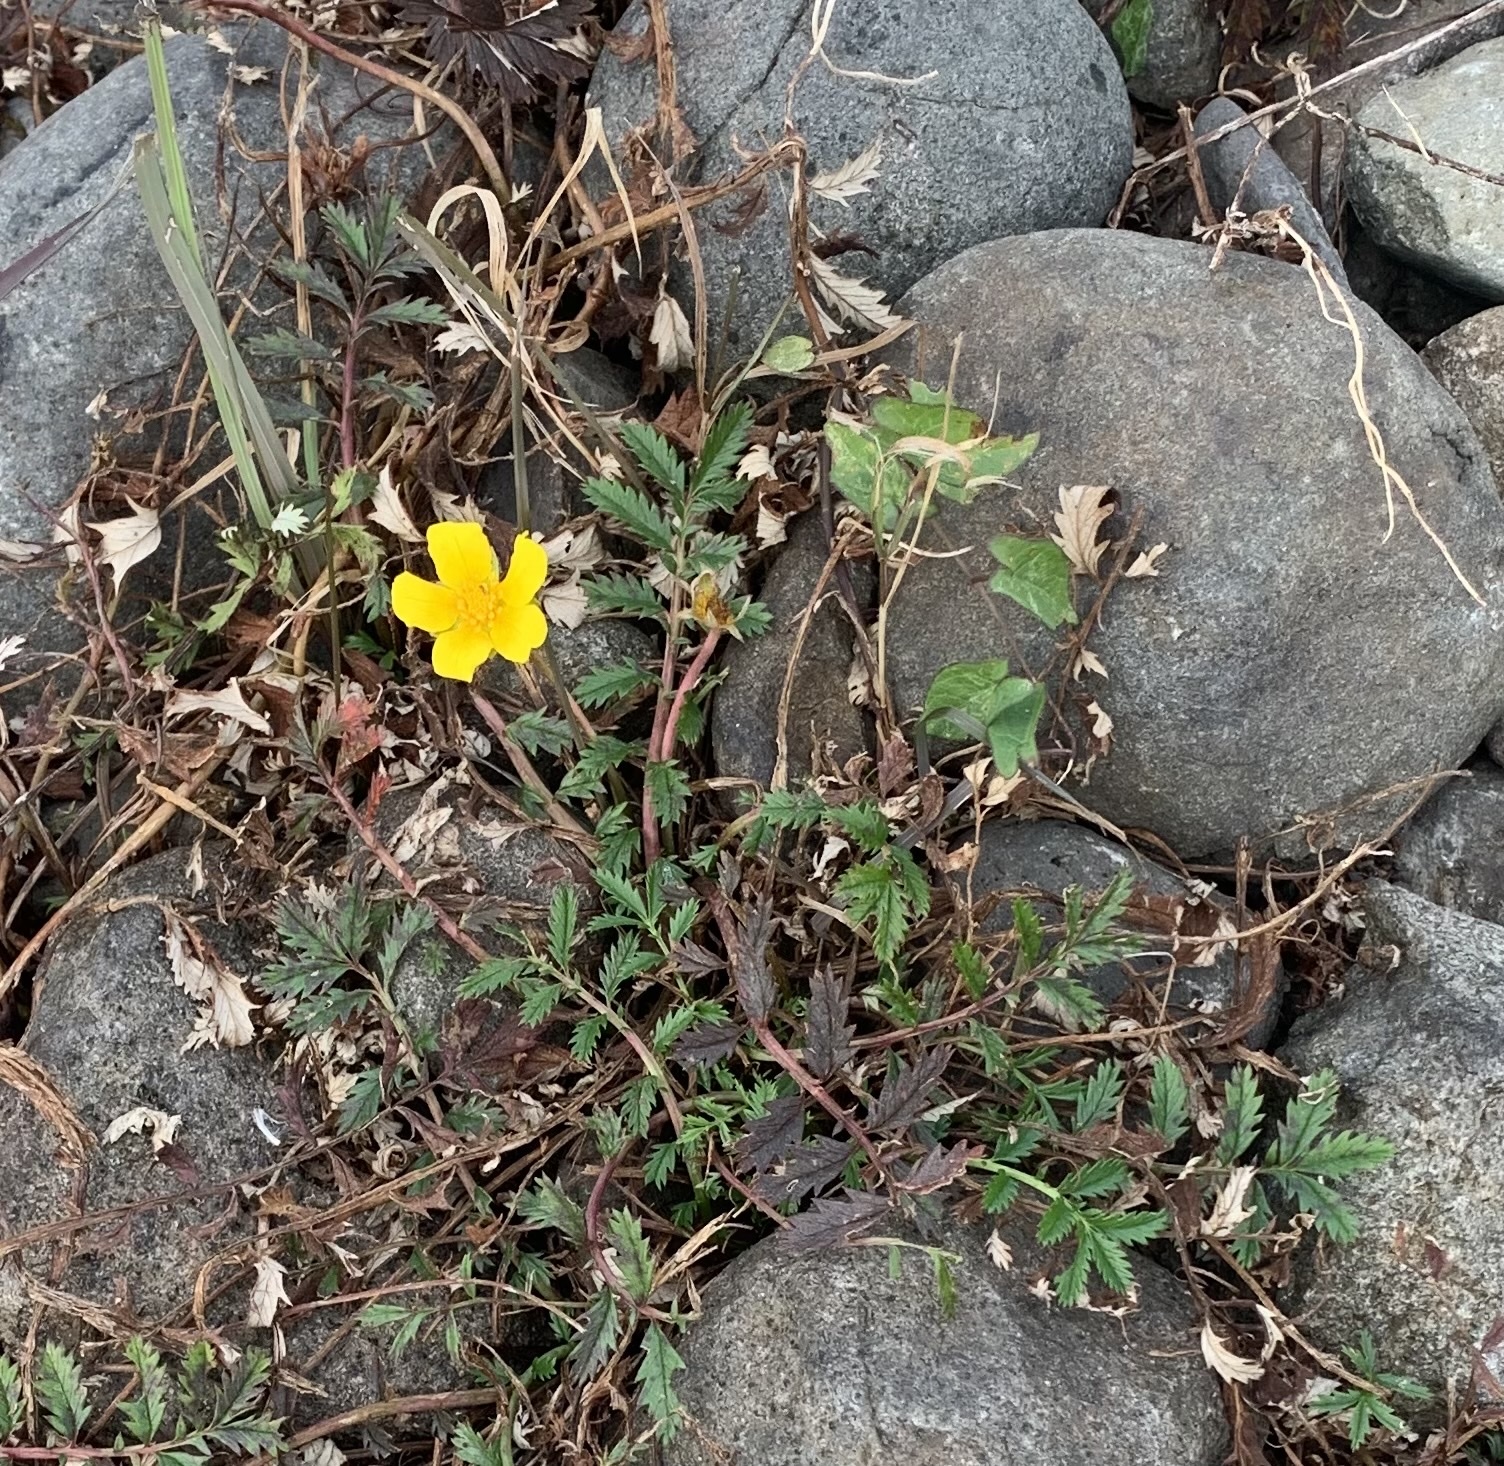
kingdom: Plantae
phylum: Tracheophyta
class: Magnoliopsida
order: Rosales
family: Rosaceae
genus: Argentina
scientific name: Argentina anserina
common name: Common silverweed
